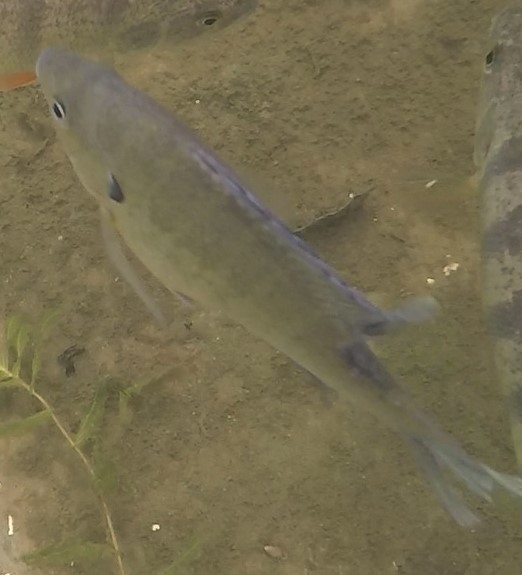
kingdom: Animalia
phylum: Chordata
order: Perciformes
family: Centrarchidae
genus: Lepomis
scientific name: Lepomis macrochirus
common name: Bluegill
